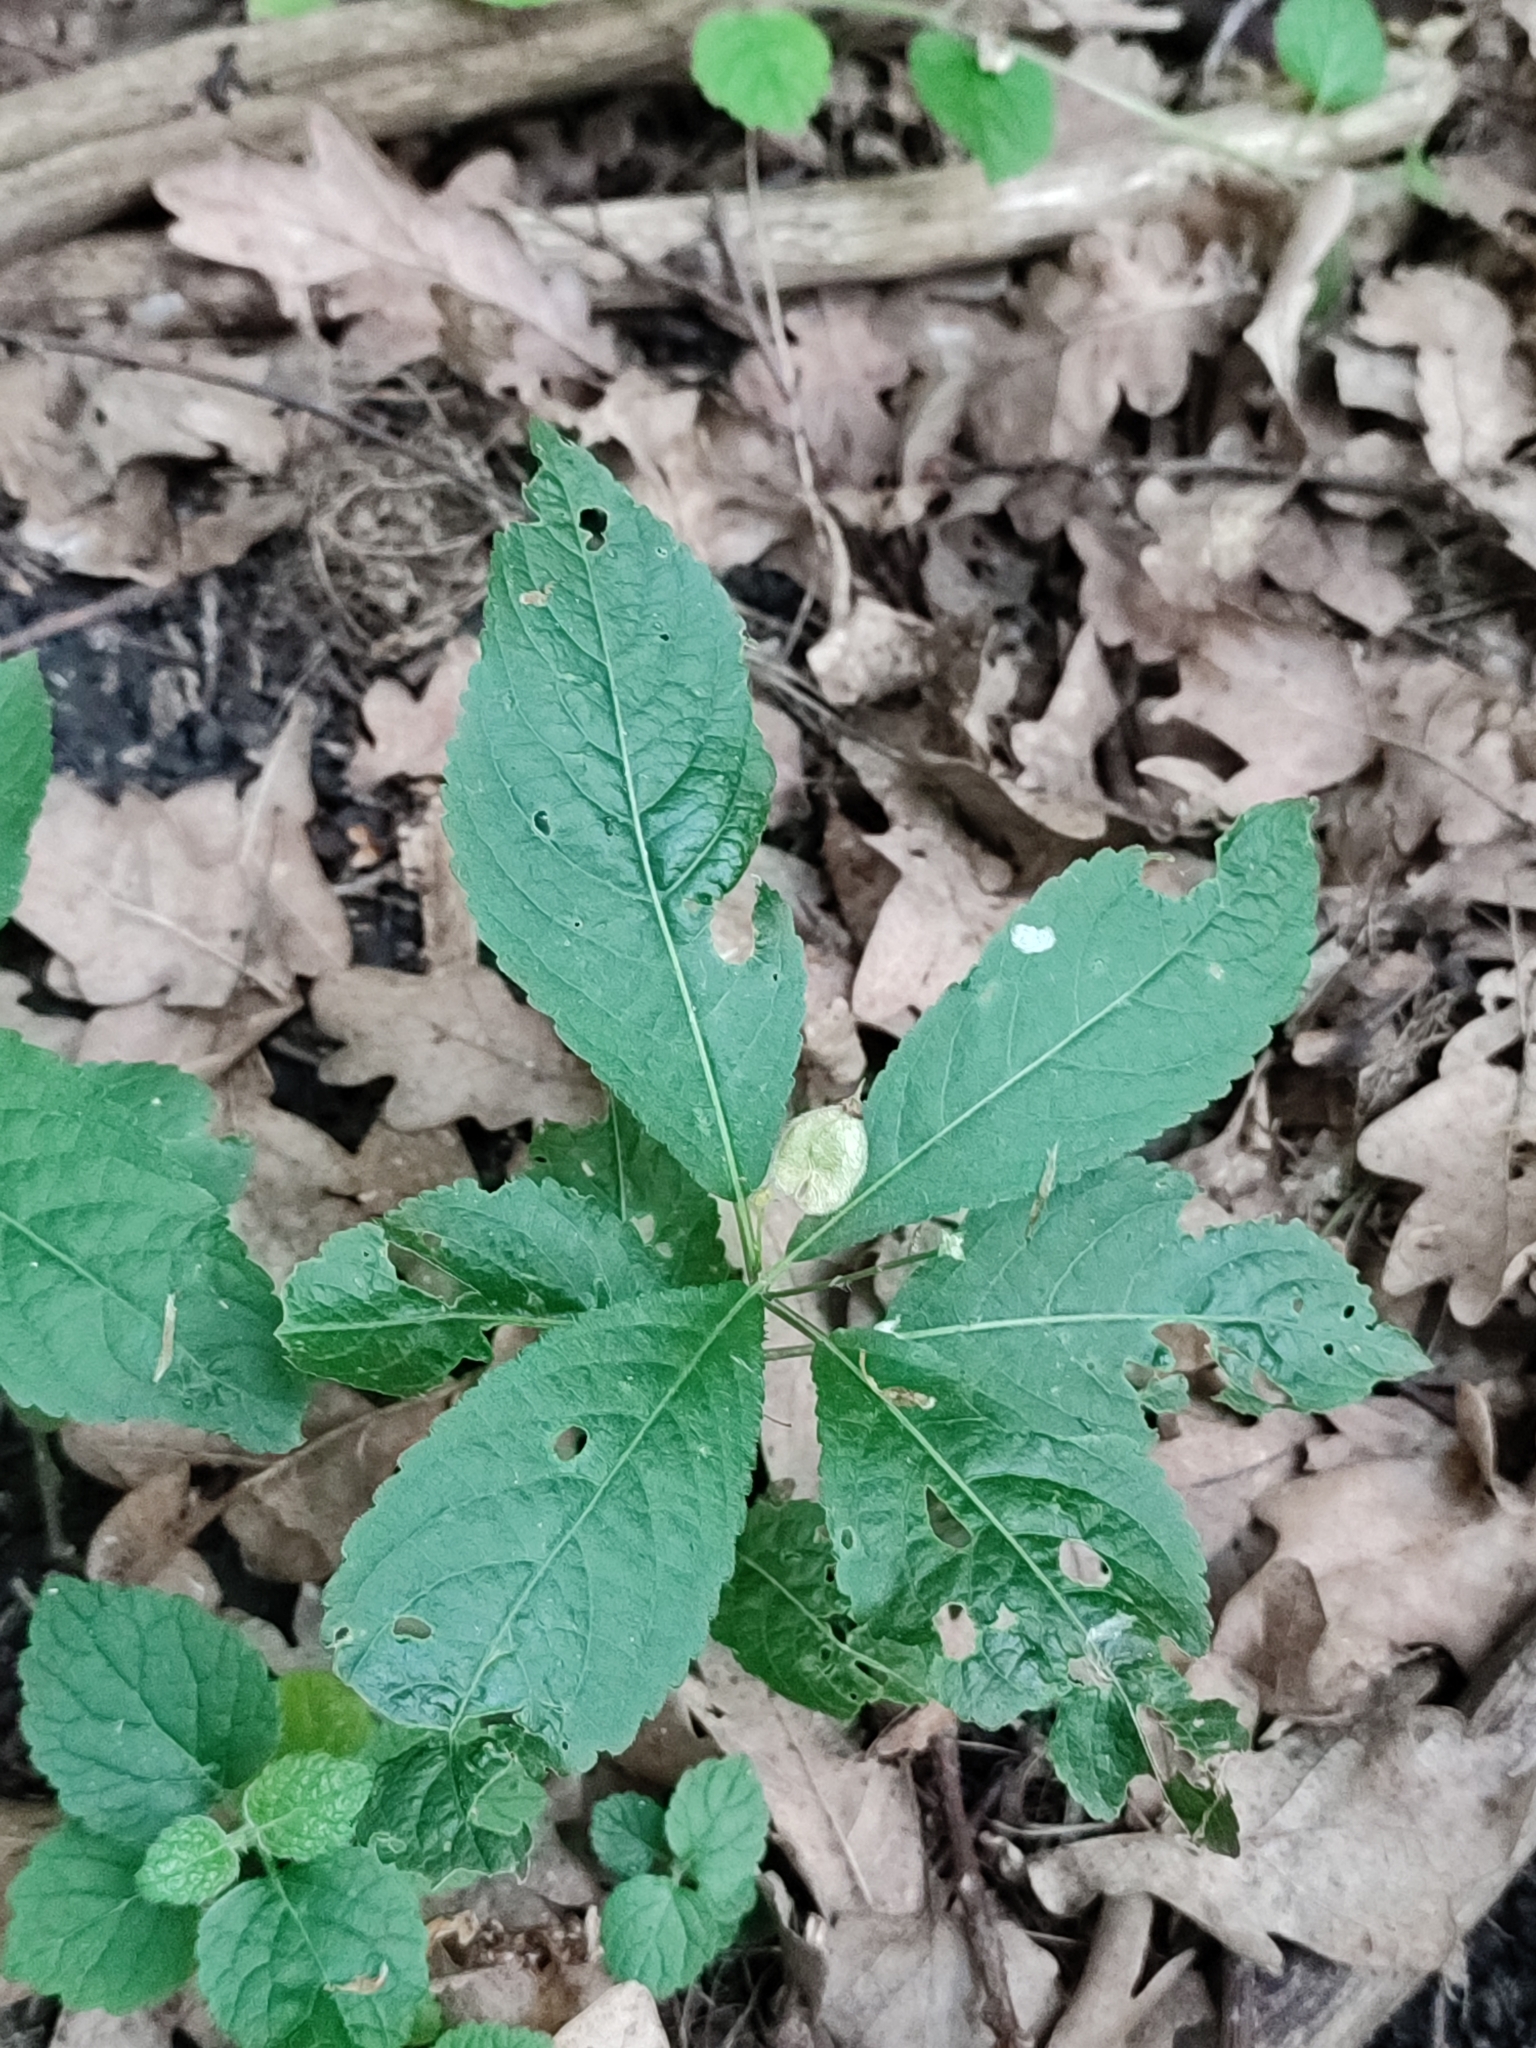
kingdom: Plantae
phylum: Tracheophyta
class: Magnoliopsida
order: Malpighiales
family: Euphorbiaceae
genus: Mercurialis
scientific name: Mercurialis perennis
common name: Dog mercury
